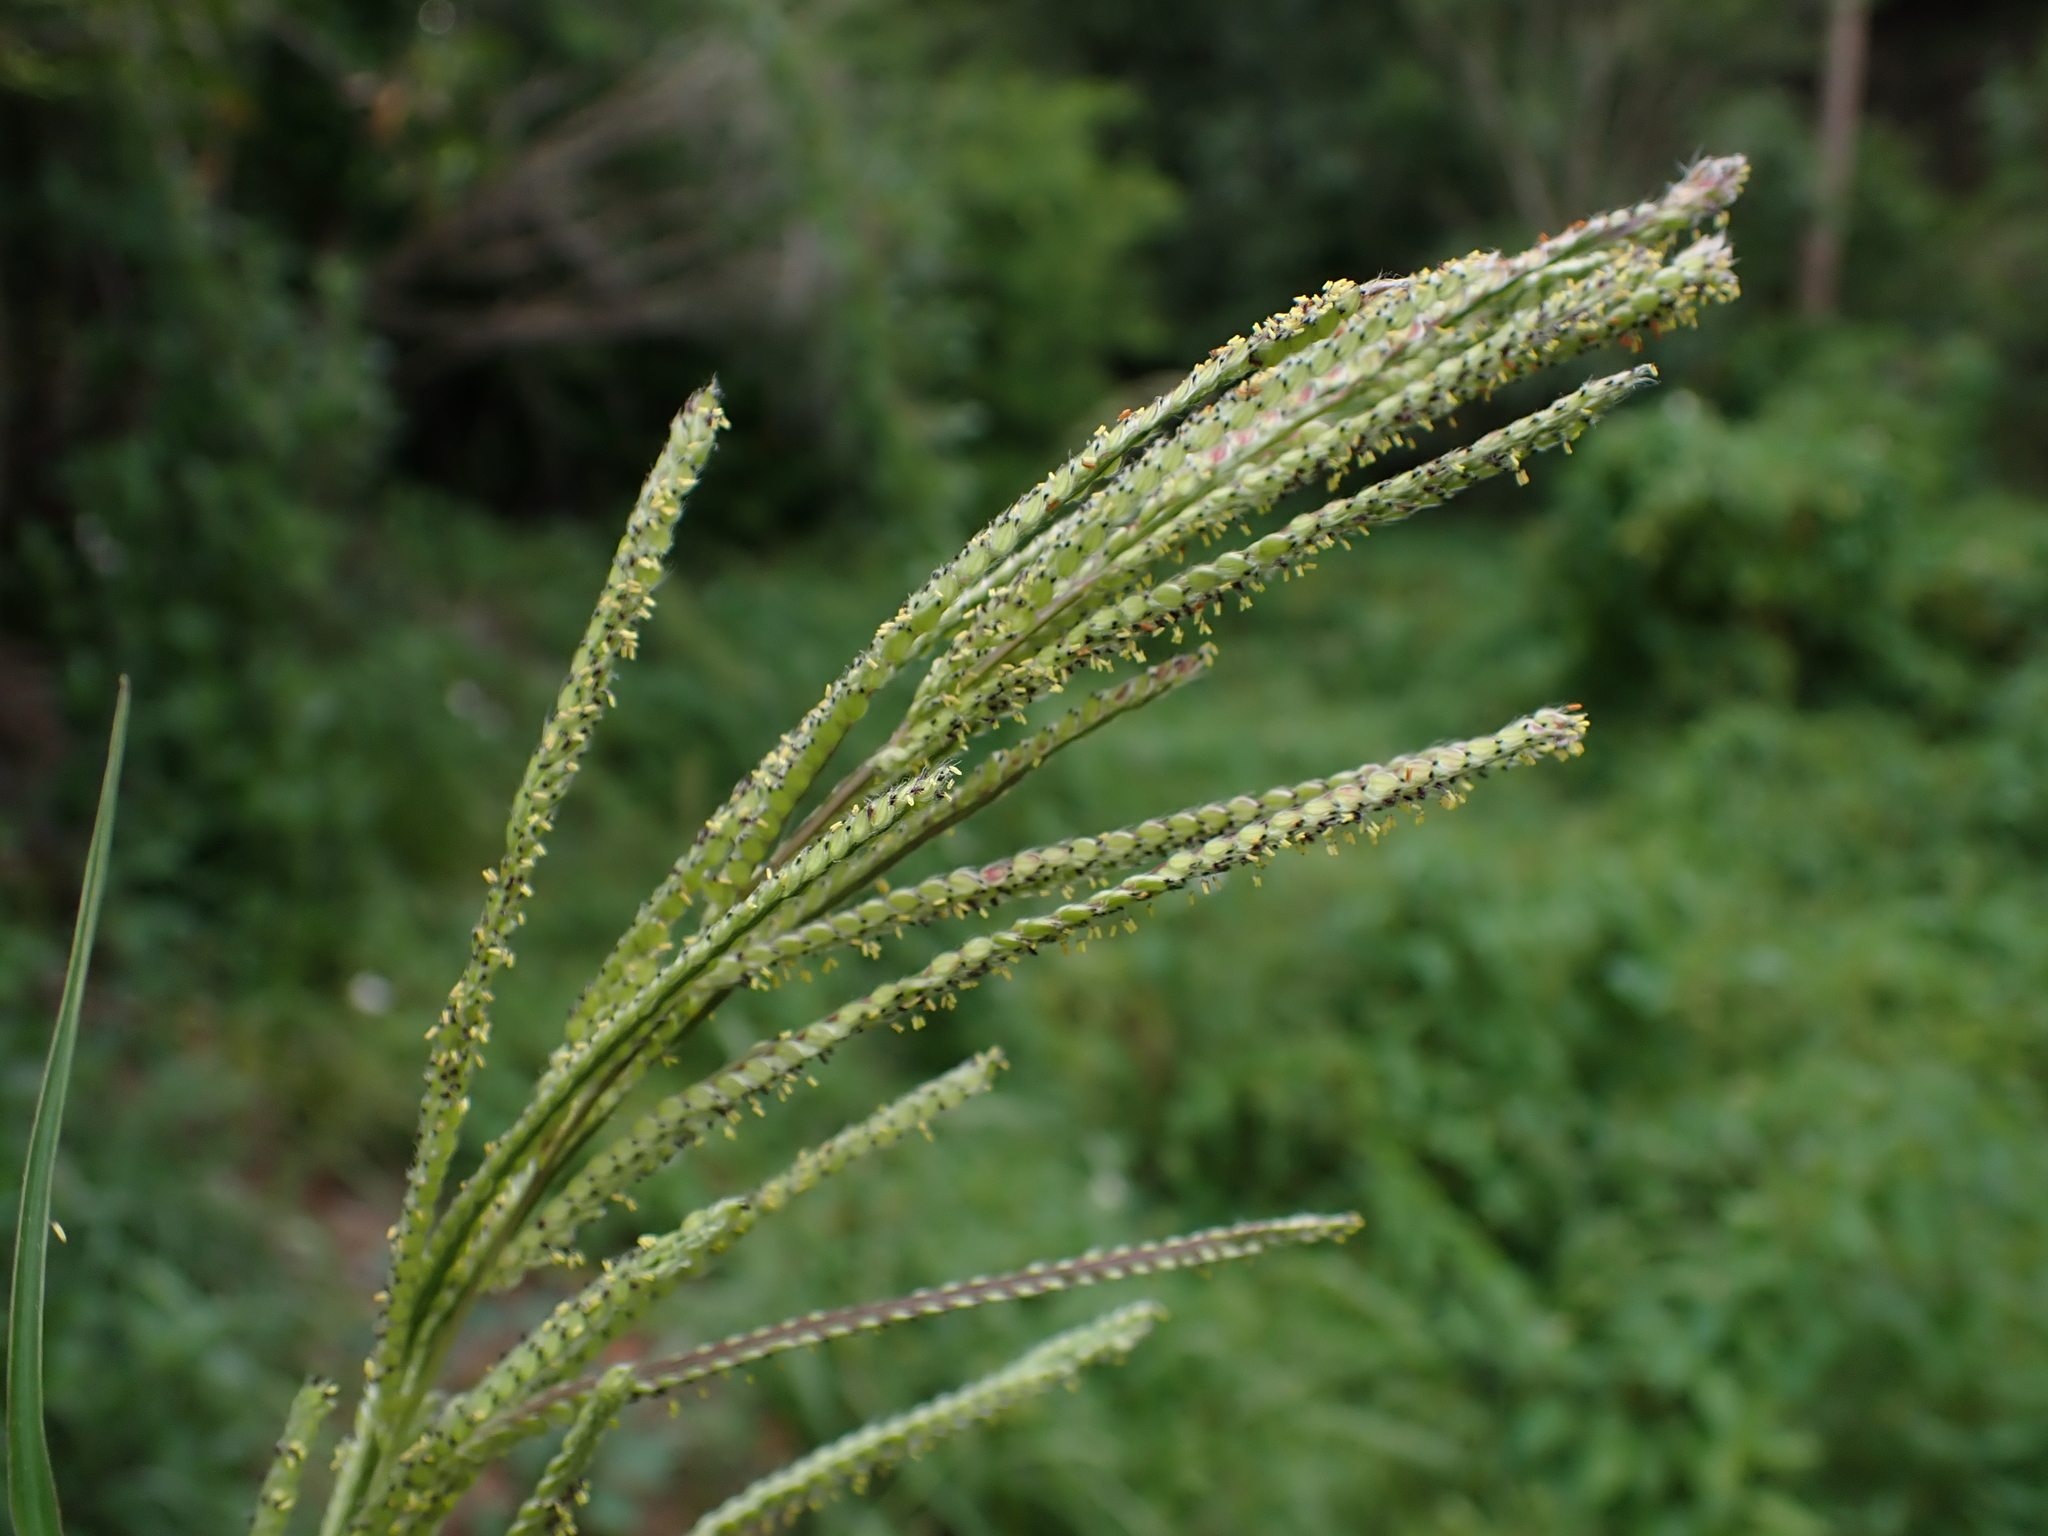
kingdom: Plantae
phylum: Tracheophyta
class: Liliopsida
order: Poales
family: Poaceae
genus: Paspalum
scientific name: Paspalum urvillei
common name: Vasey's grass
